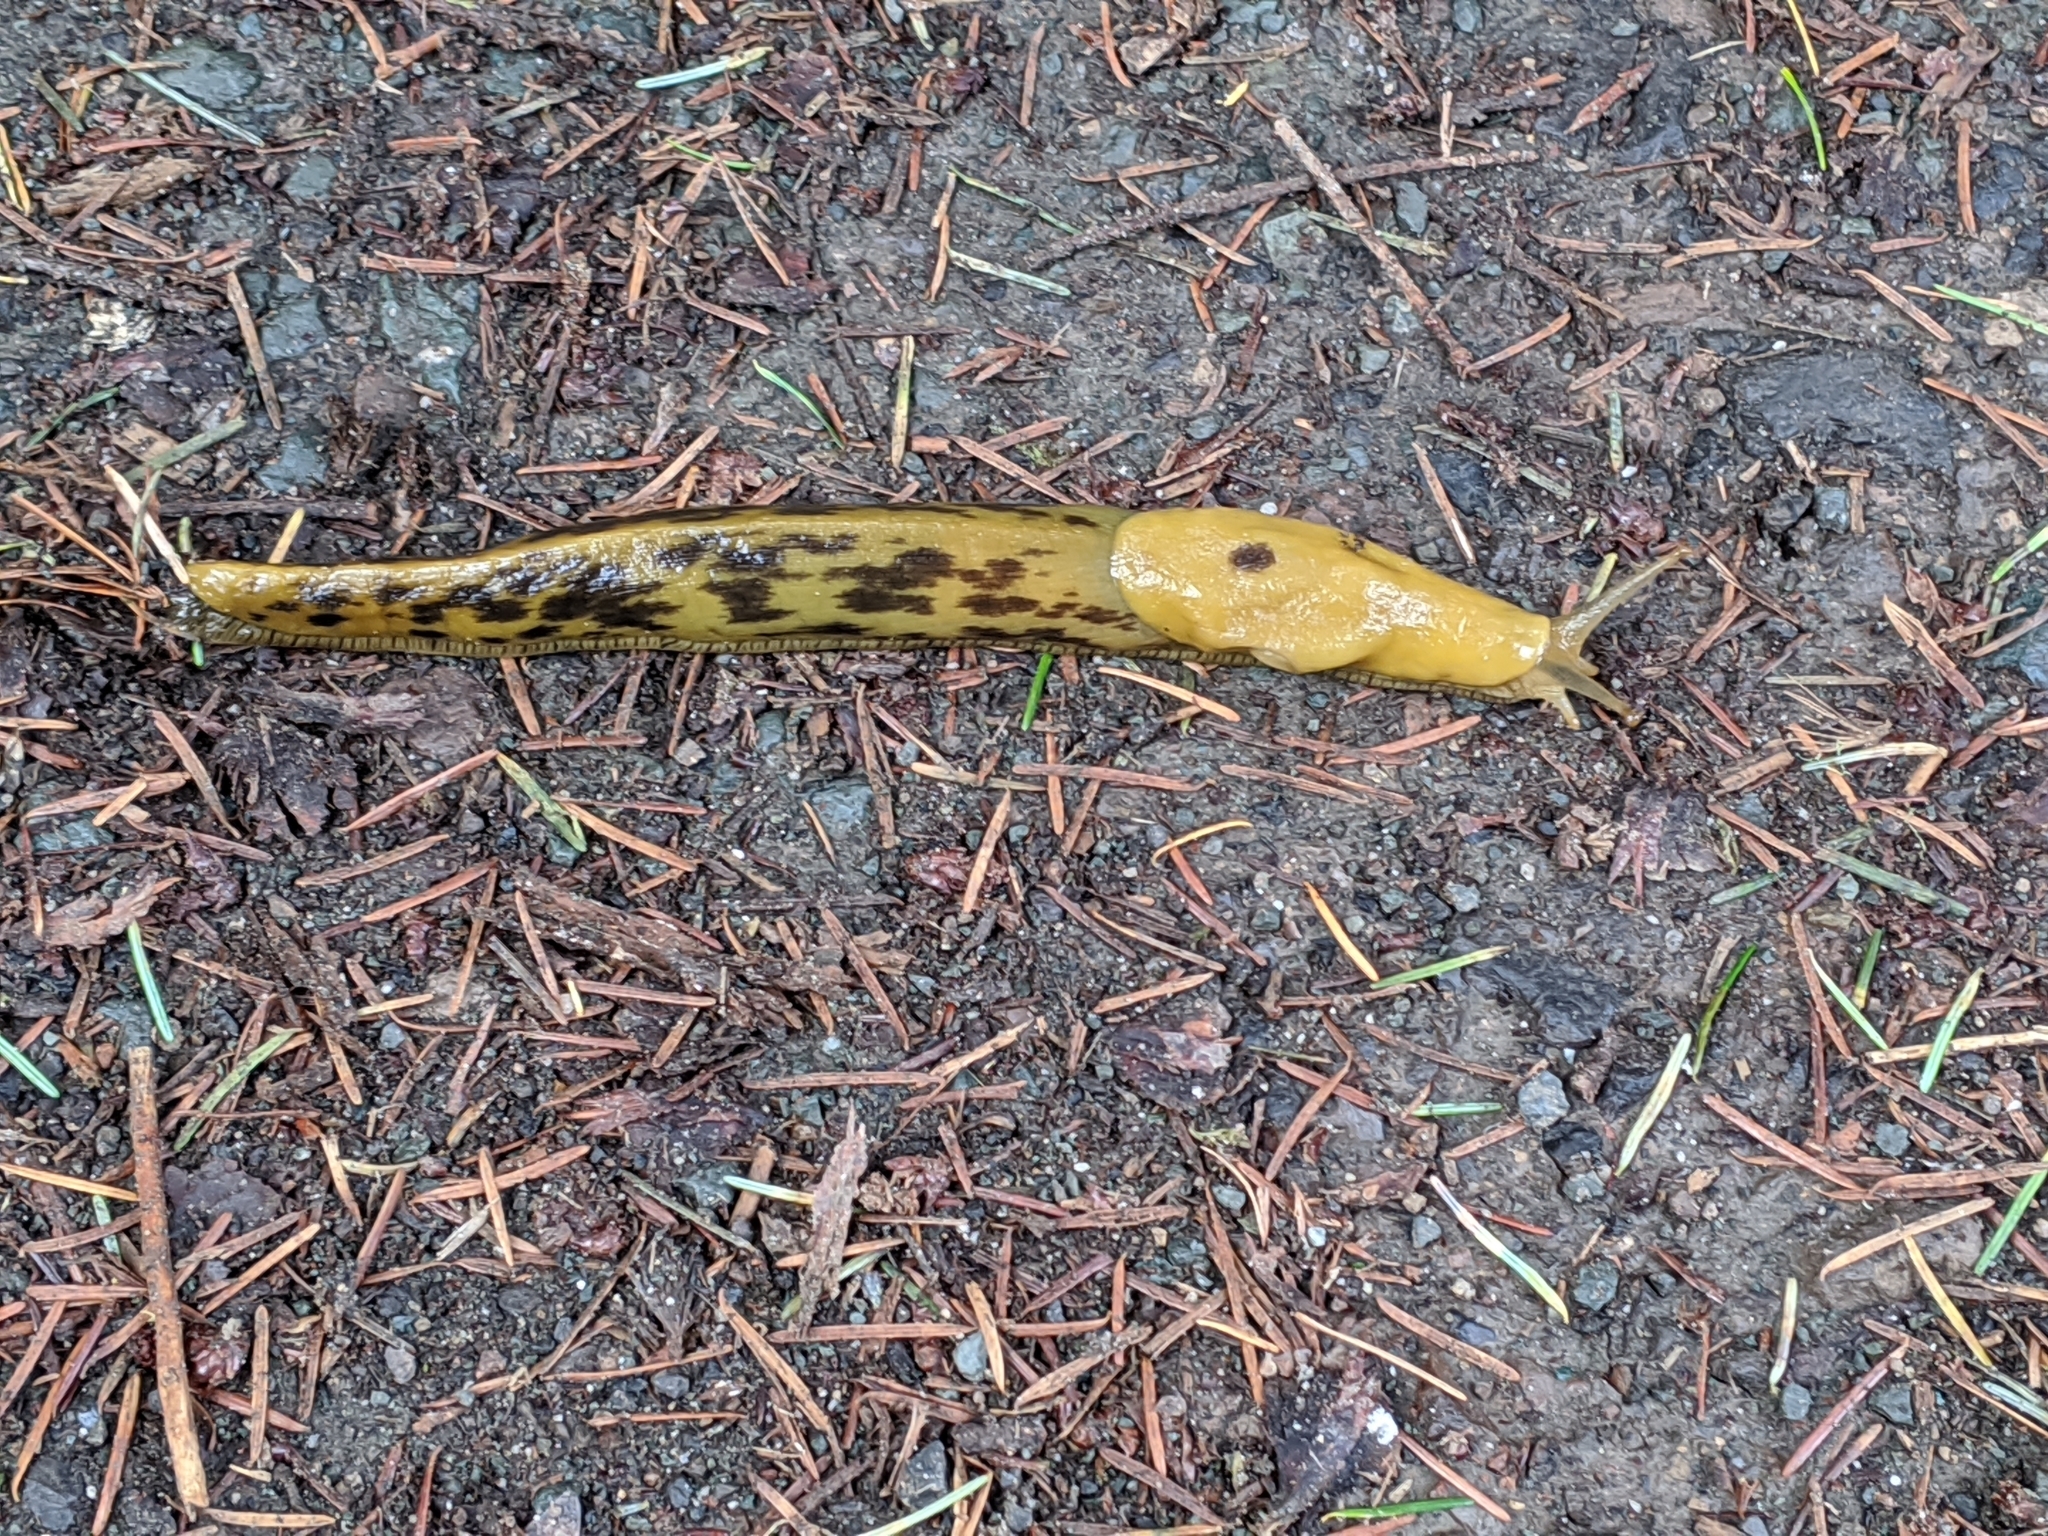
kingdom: Animalia
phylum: Mollusca
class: Gastropoda
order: Stylommatophora
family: Ariolimacidae
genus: Ariolimax
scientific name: Ariolimax buttoni
